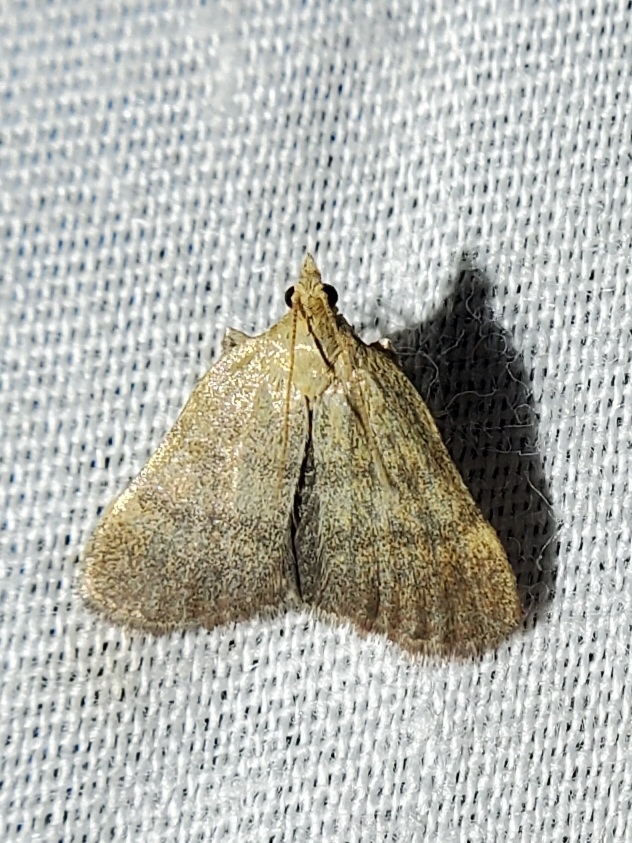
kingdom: Animalia
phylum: Arthropoda
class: Insecta
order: Lepidoptera
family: Pyralidae
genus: Condylolomia
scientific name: Condylolomia participialis
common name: Drab condylolomia moth
